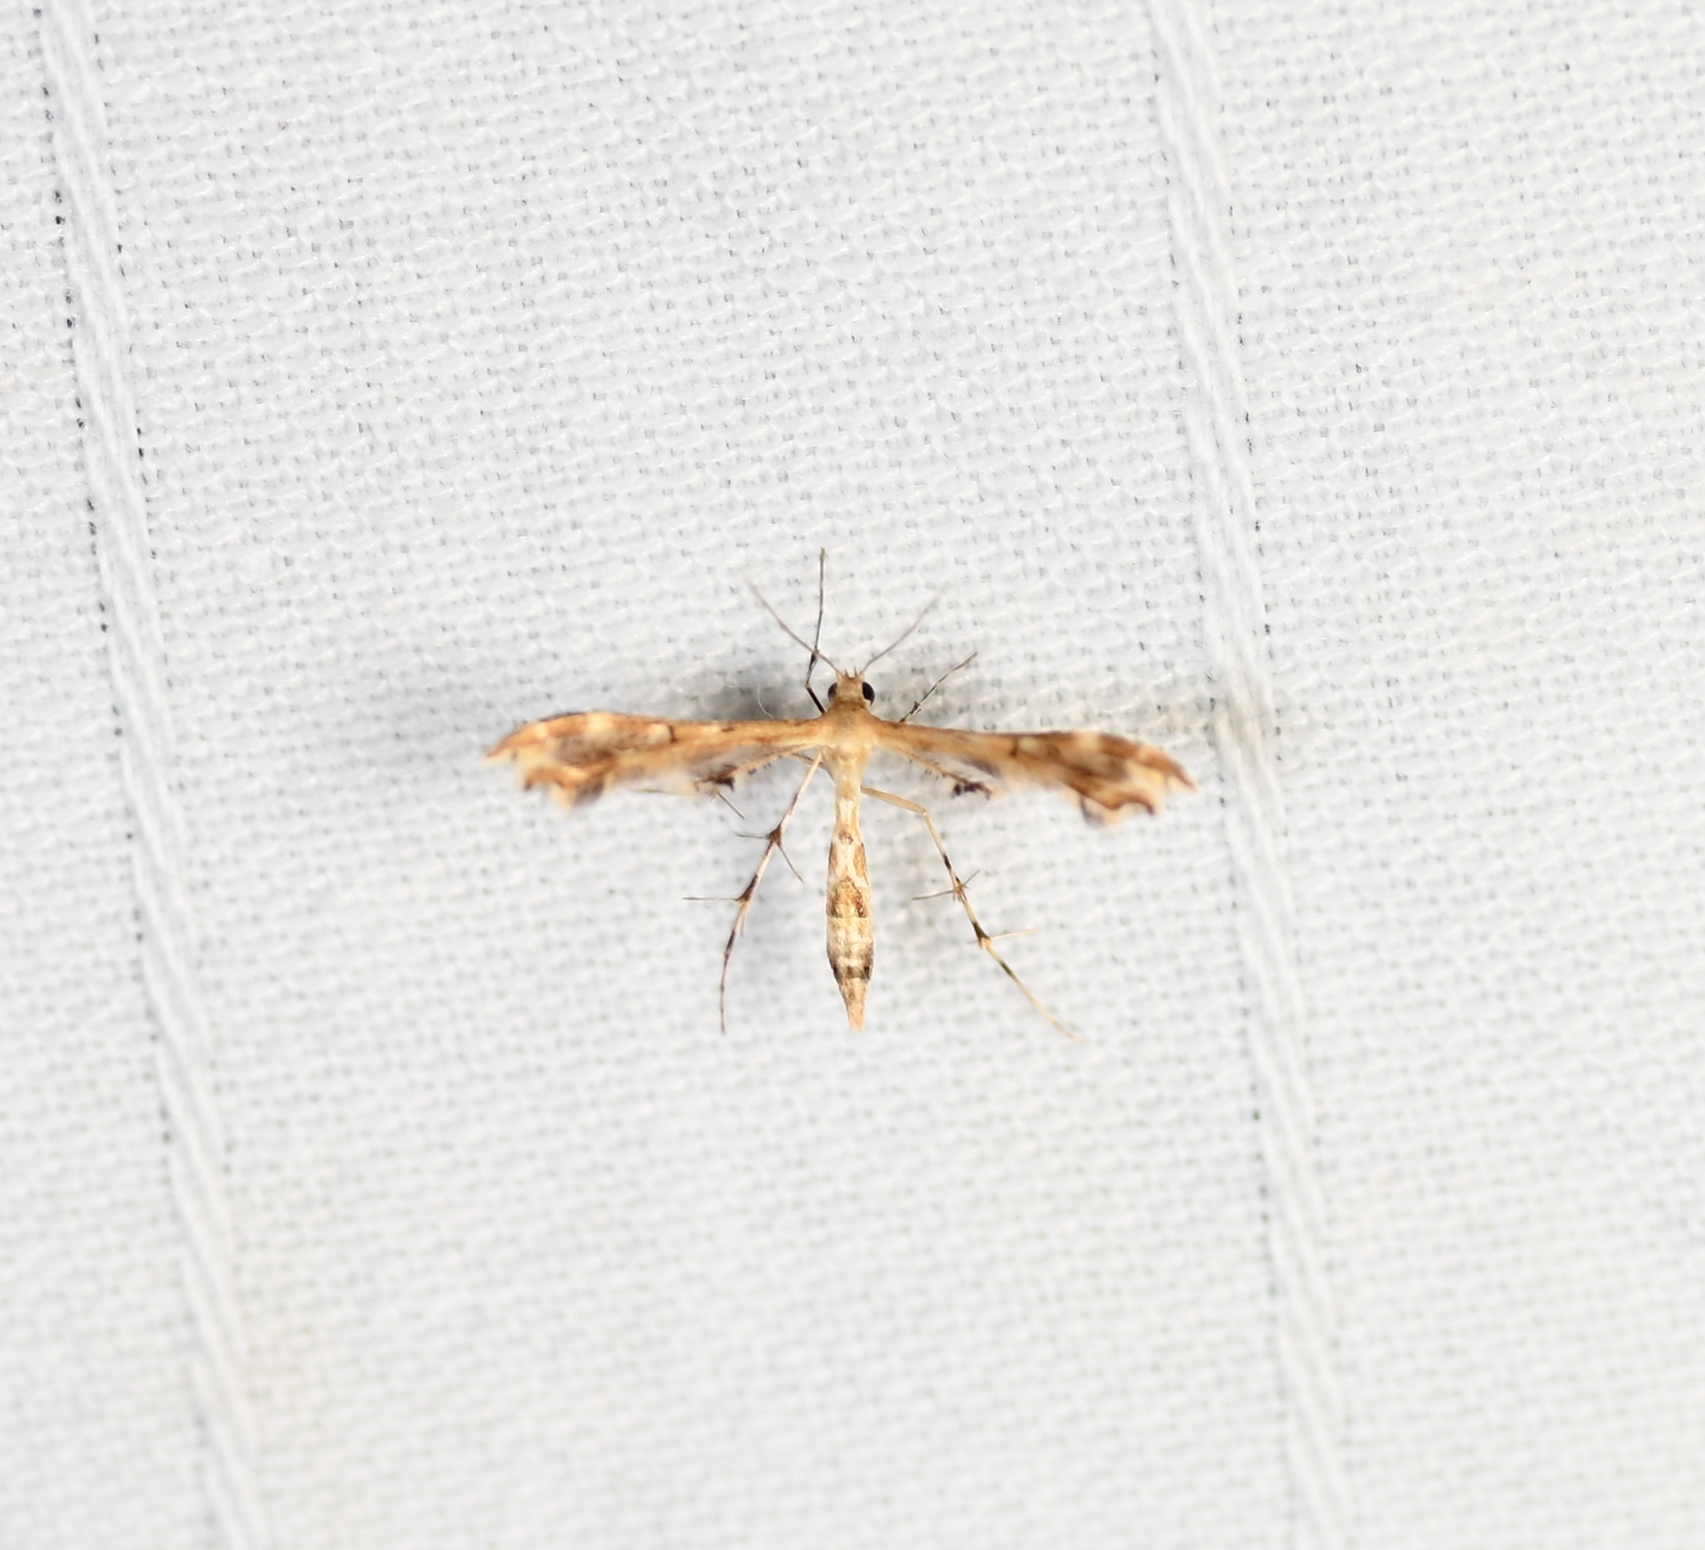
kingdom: Animalia
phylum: Arthropoda
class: Insecta
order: Lepidoptera
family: Pterophoridae
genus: Sphenarches
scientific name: Sphenarches anisodactylus
